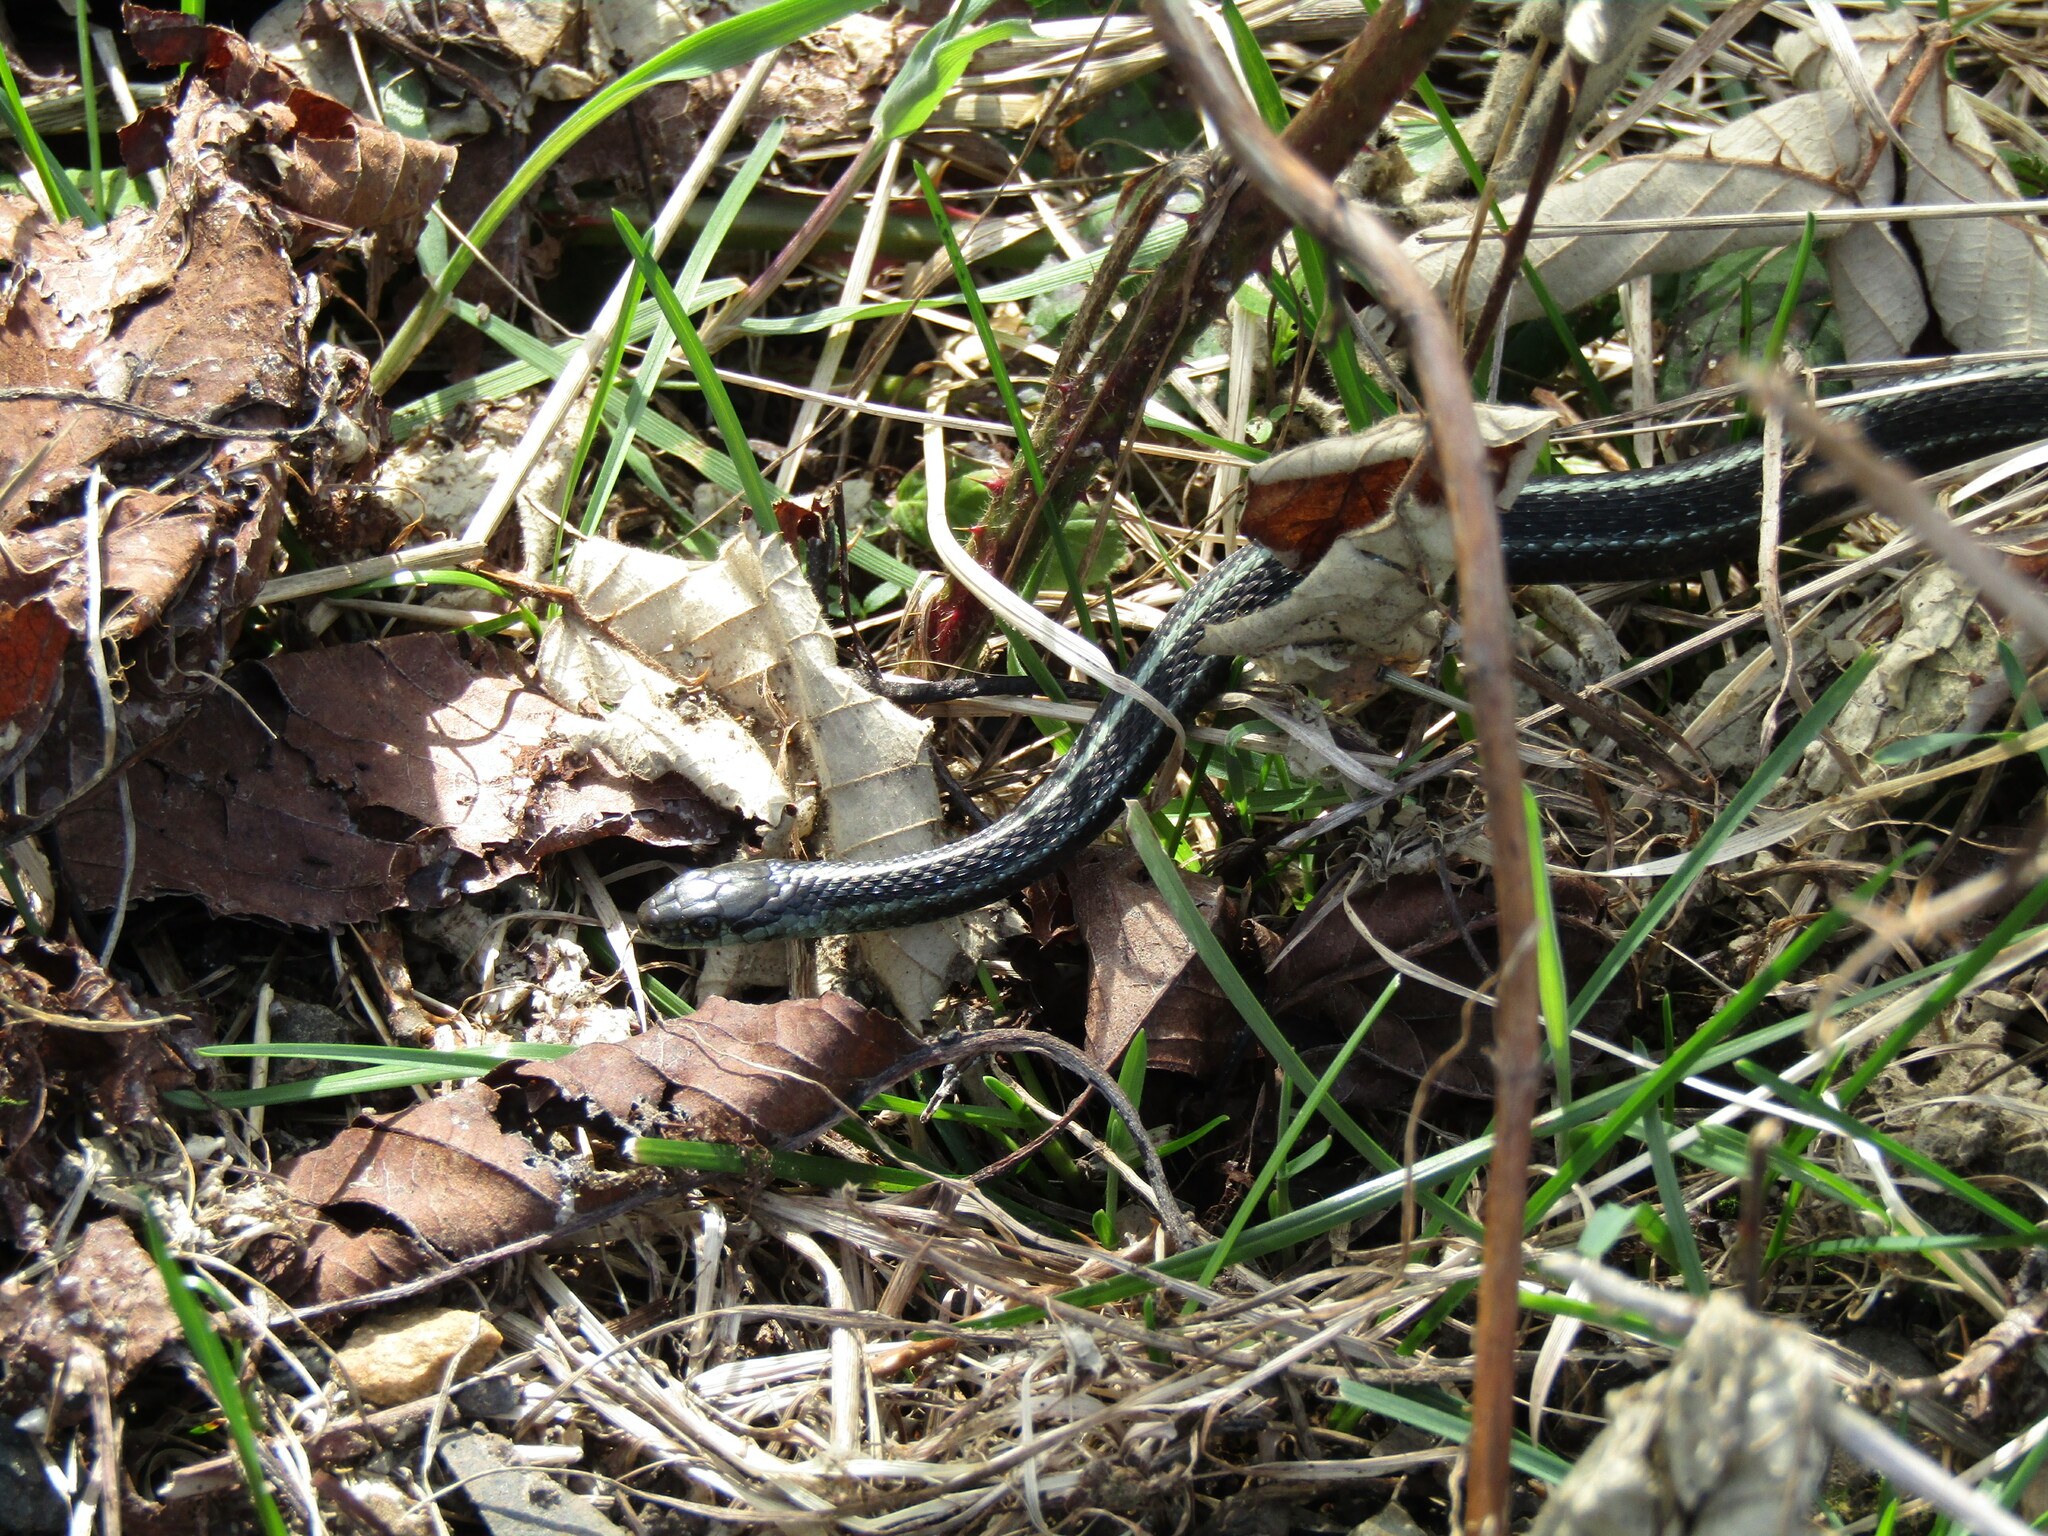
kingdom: Animalia
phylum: Chordata
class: Squamata
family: Colubridae
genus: Thamnophis
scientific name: Thamnophis ordinoides
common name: Northwestern garter snake
